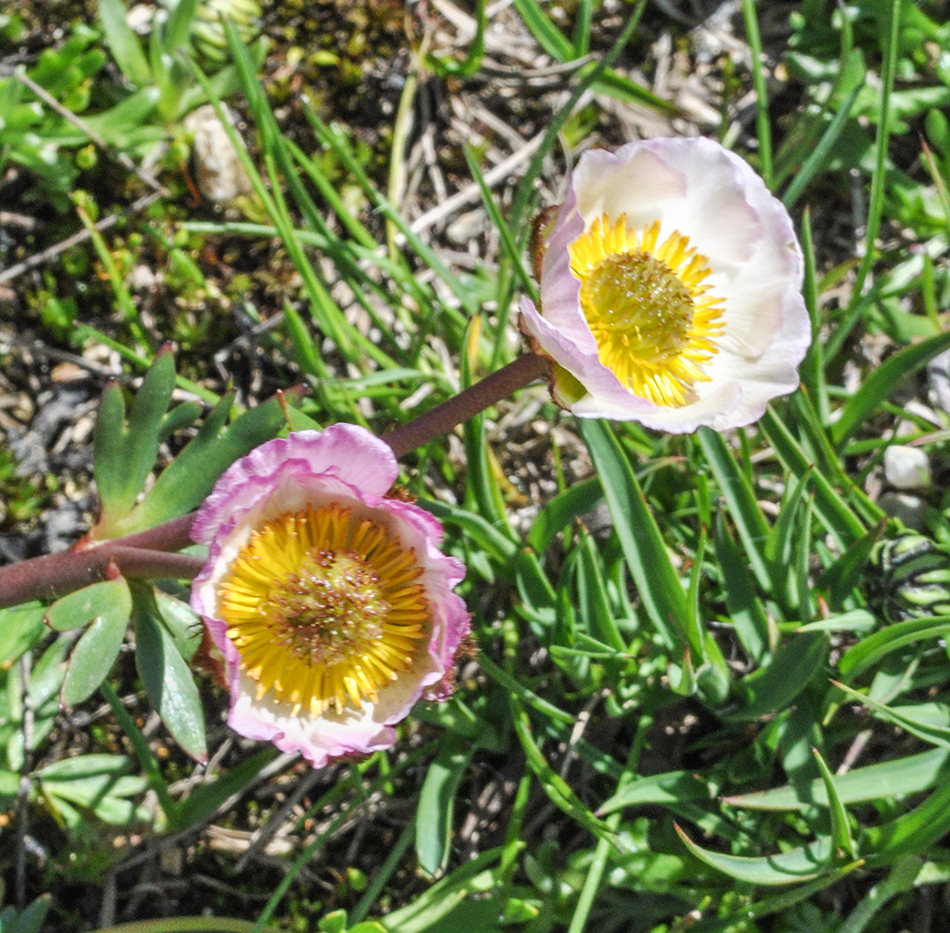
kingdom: Plantae
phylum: Tracheophyta
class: Magnoliopsida
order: Ranunculales
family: Ranunculaceae
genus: Ranunculus
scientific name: Ranunculus glacialis
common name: Glacier buttercup
